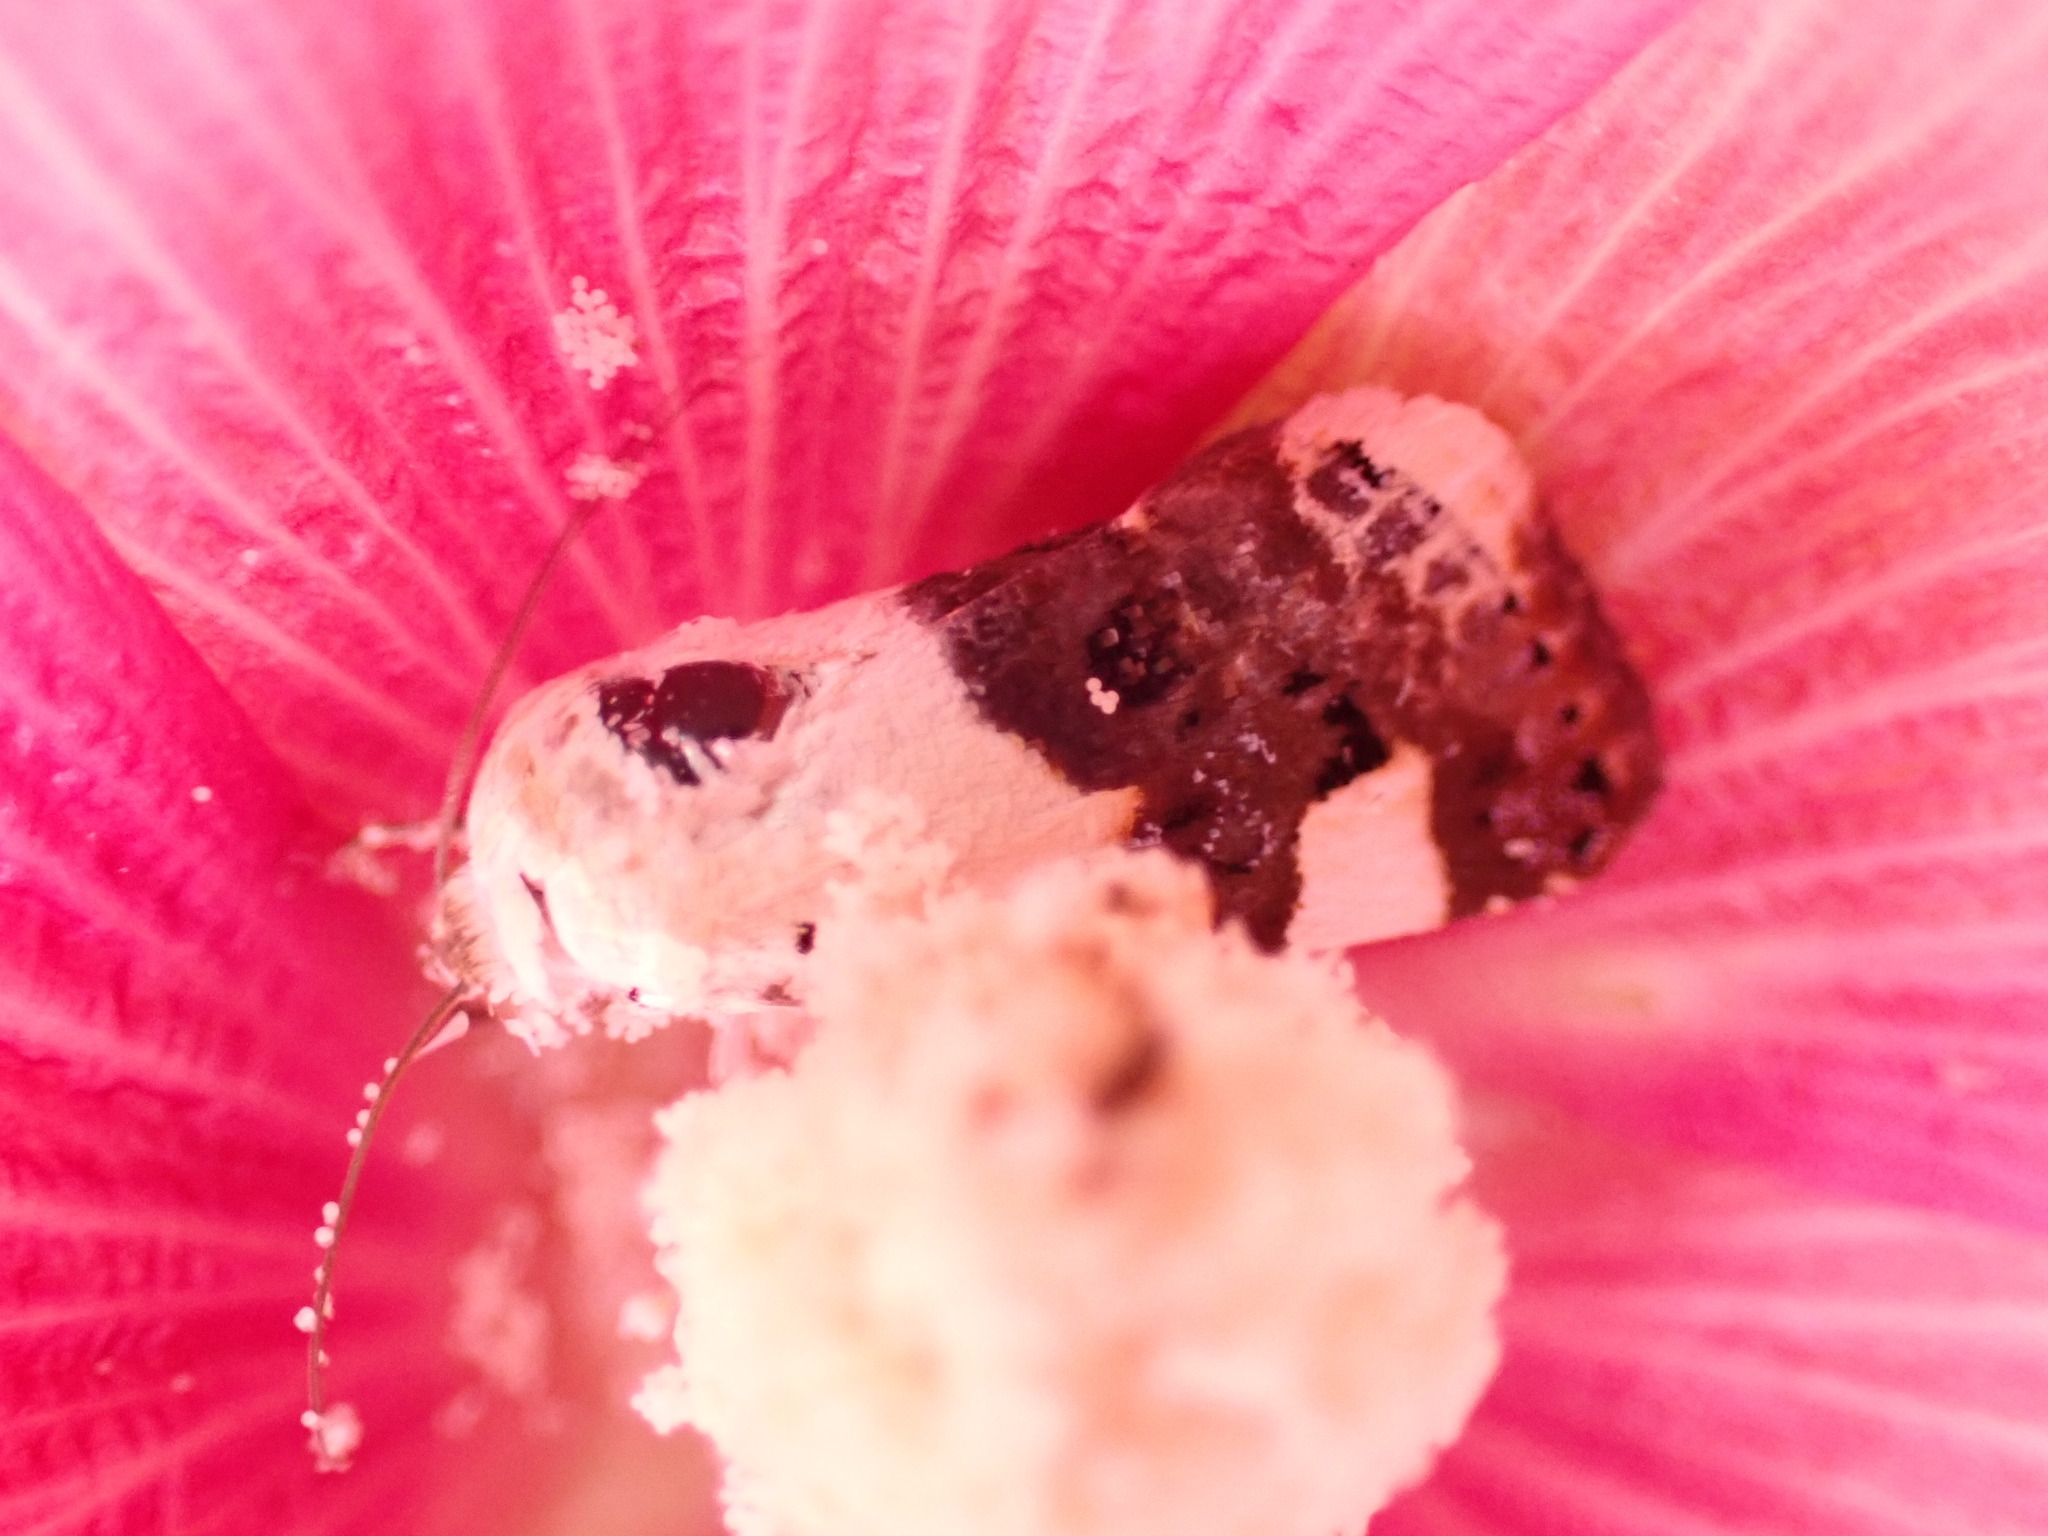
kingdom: Animalia
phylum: Arthropoda
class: Insecta
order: Lepidoptera
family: Noctuidae
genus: Acontia
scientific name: Acontia lucida
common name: Pale shoulder
